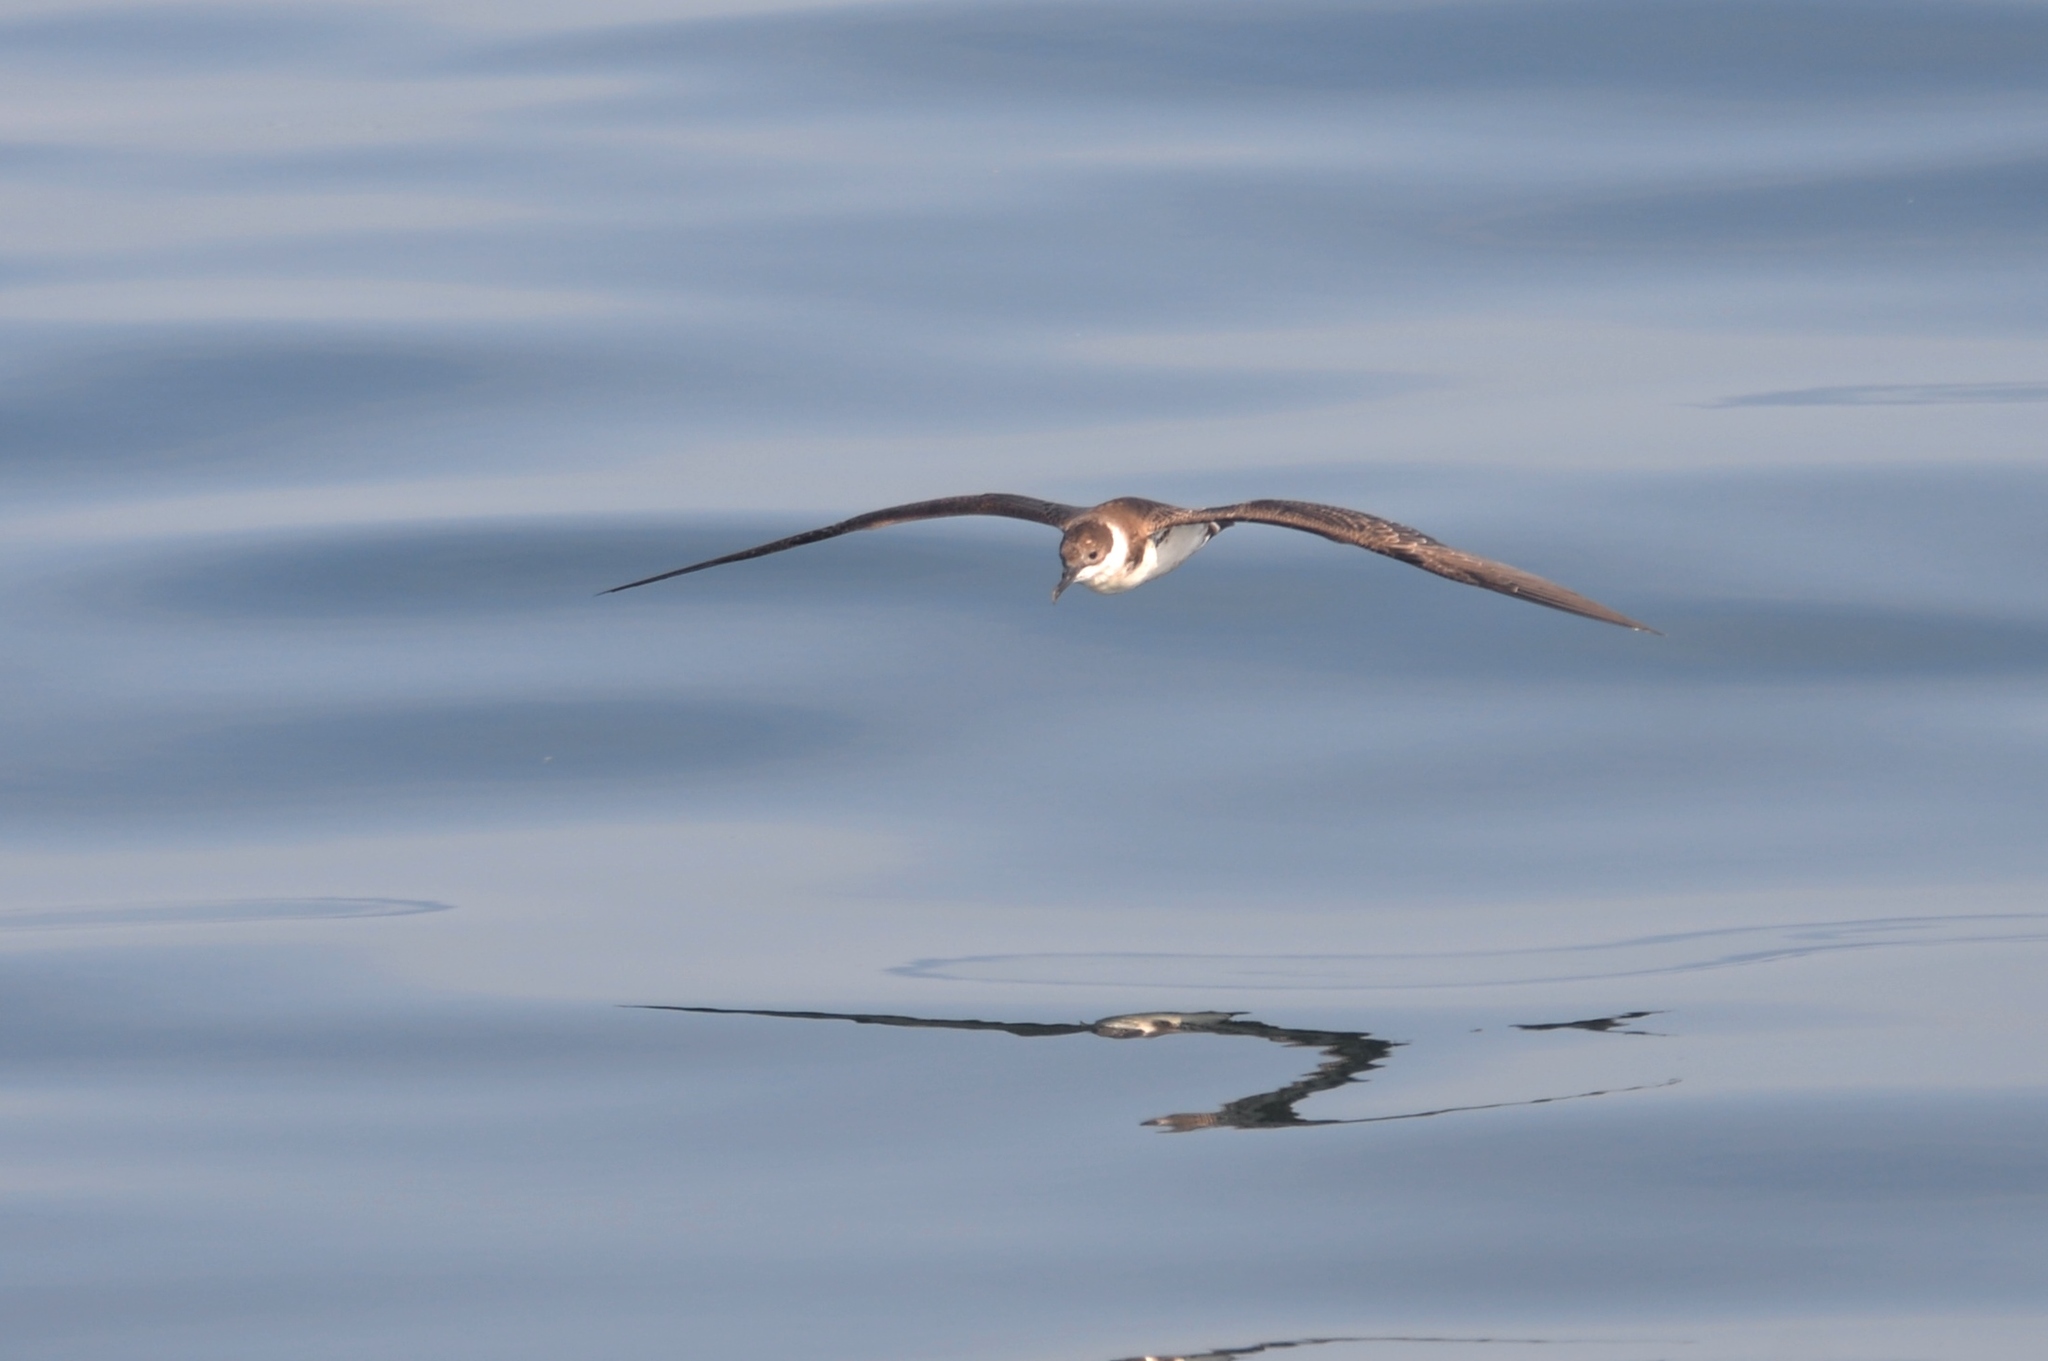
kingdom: Animalia
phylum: Chordata
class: Aves
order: Procellariiformes
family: Procellariidae
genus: Puffinus
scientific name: Puffinus gravis
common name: Great shearwater
